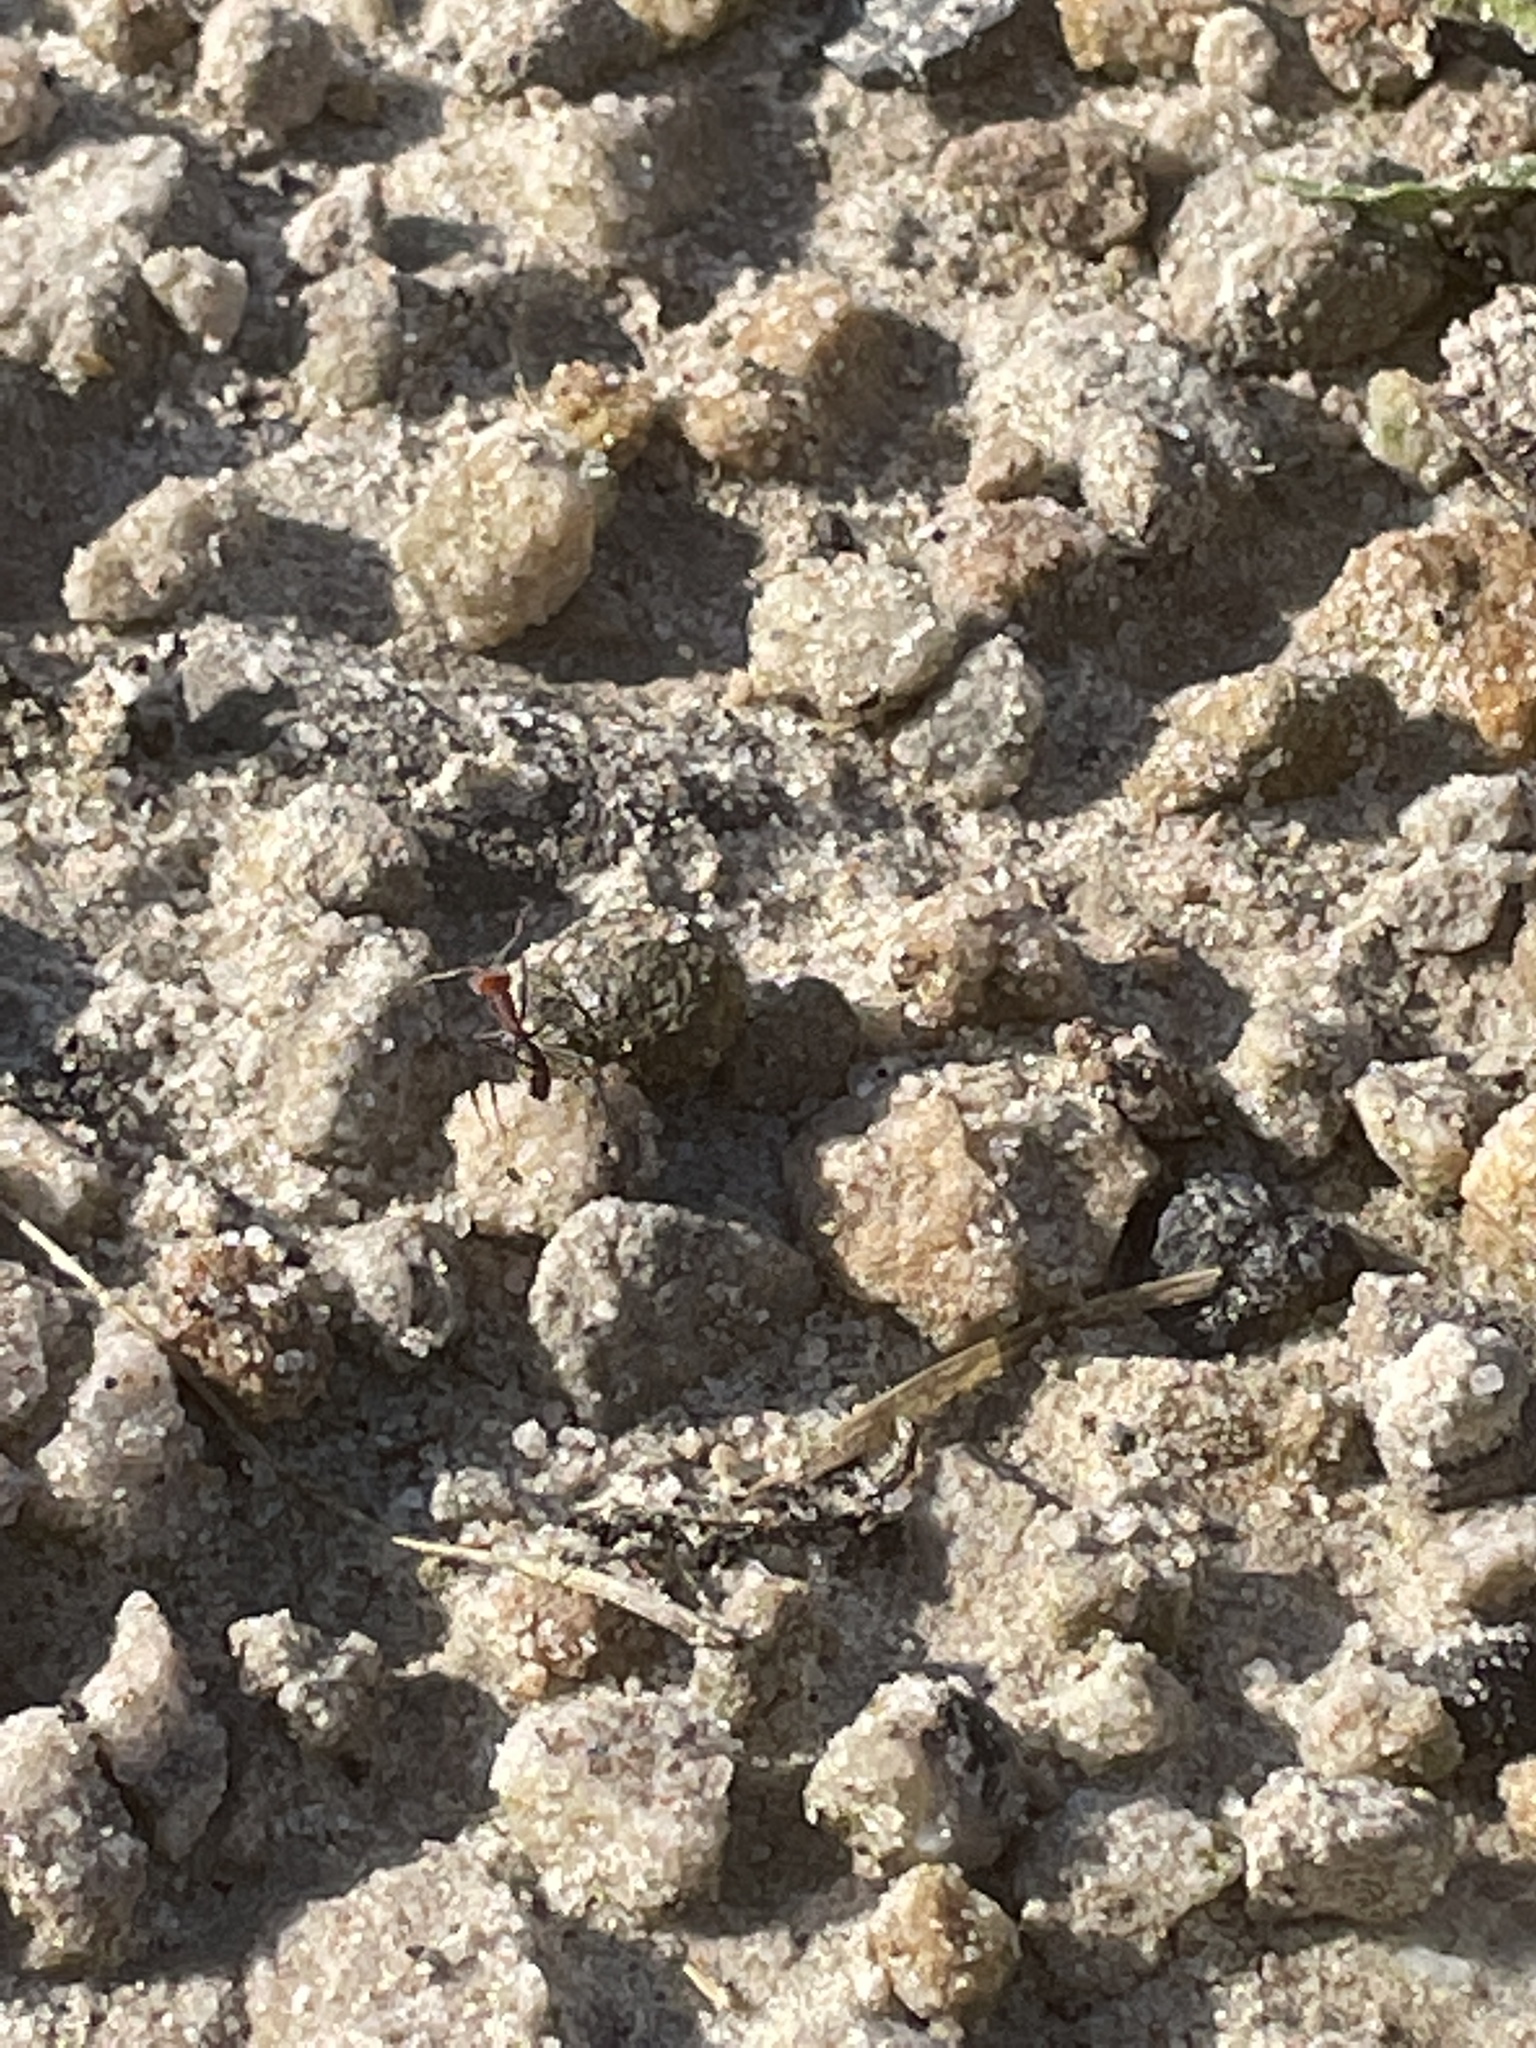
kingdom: Animalia
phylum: Arthropoda
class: Insecta
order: Hymenoptera
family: Formicidae
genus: Iridomyrmex
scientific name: Iridomyrmex purpureus
